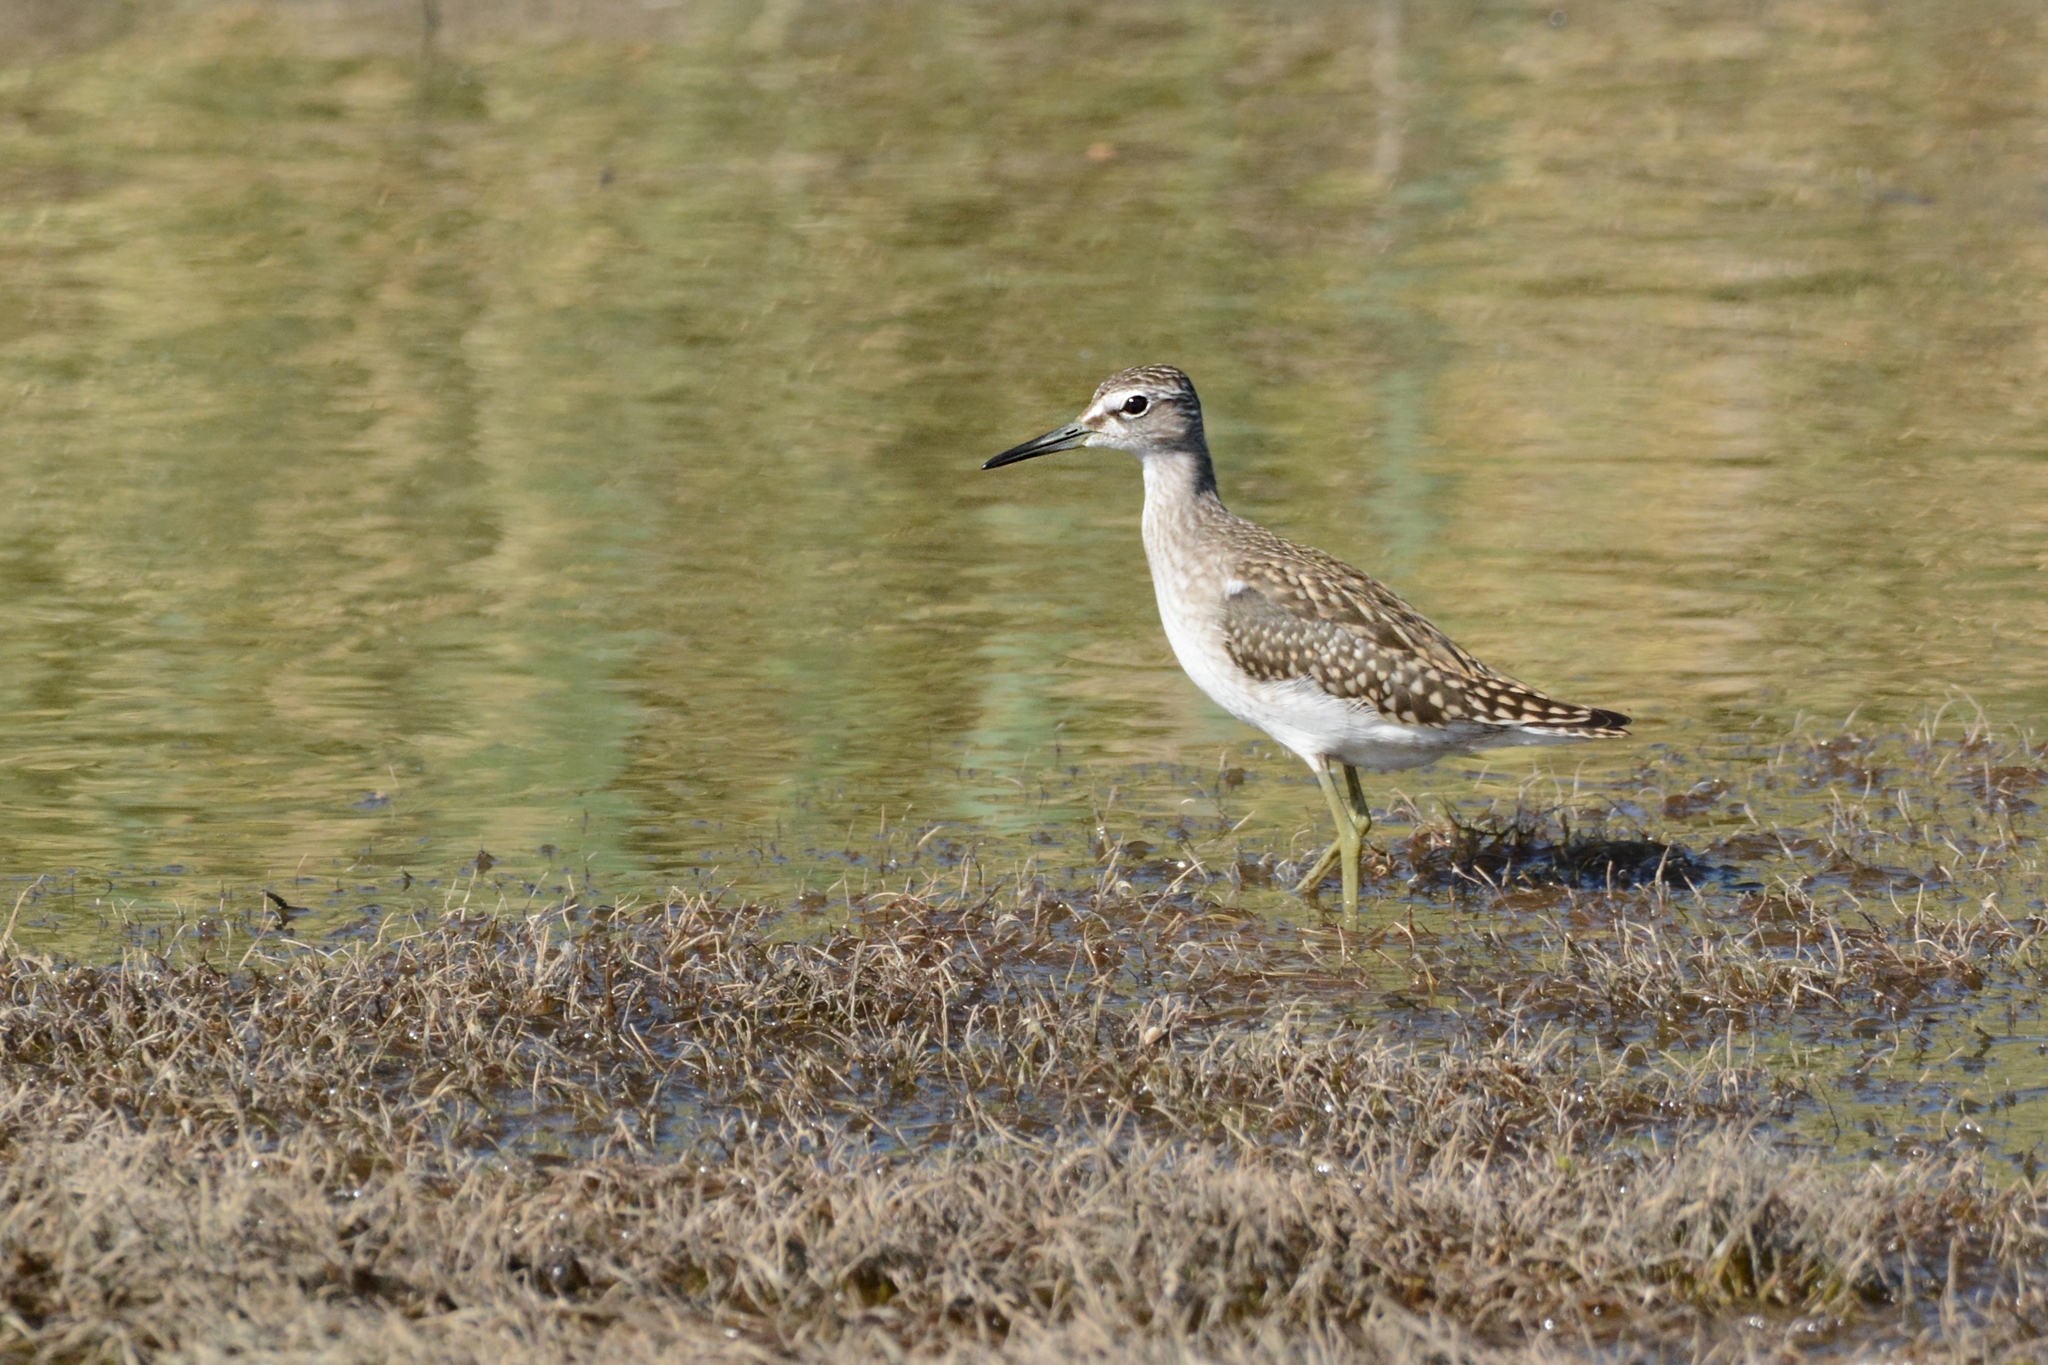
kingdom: Animalia
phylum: Chordata
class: Aves
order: Charadriiformes
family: Scolopacidae
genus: Tringa
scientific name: Tringa glareola
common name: Wood sandpiper
